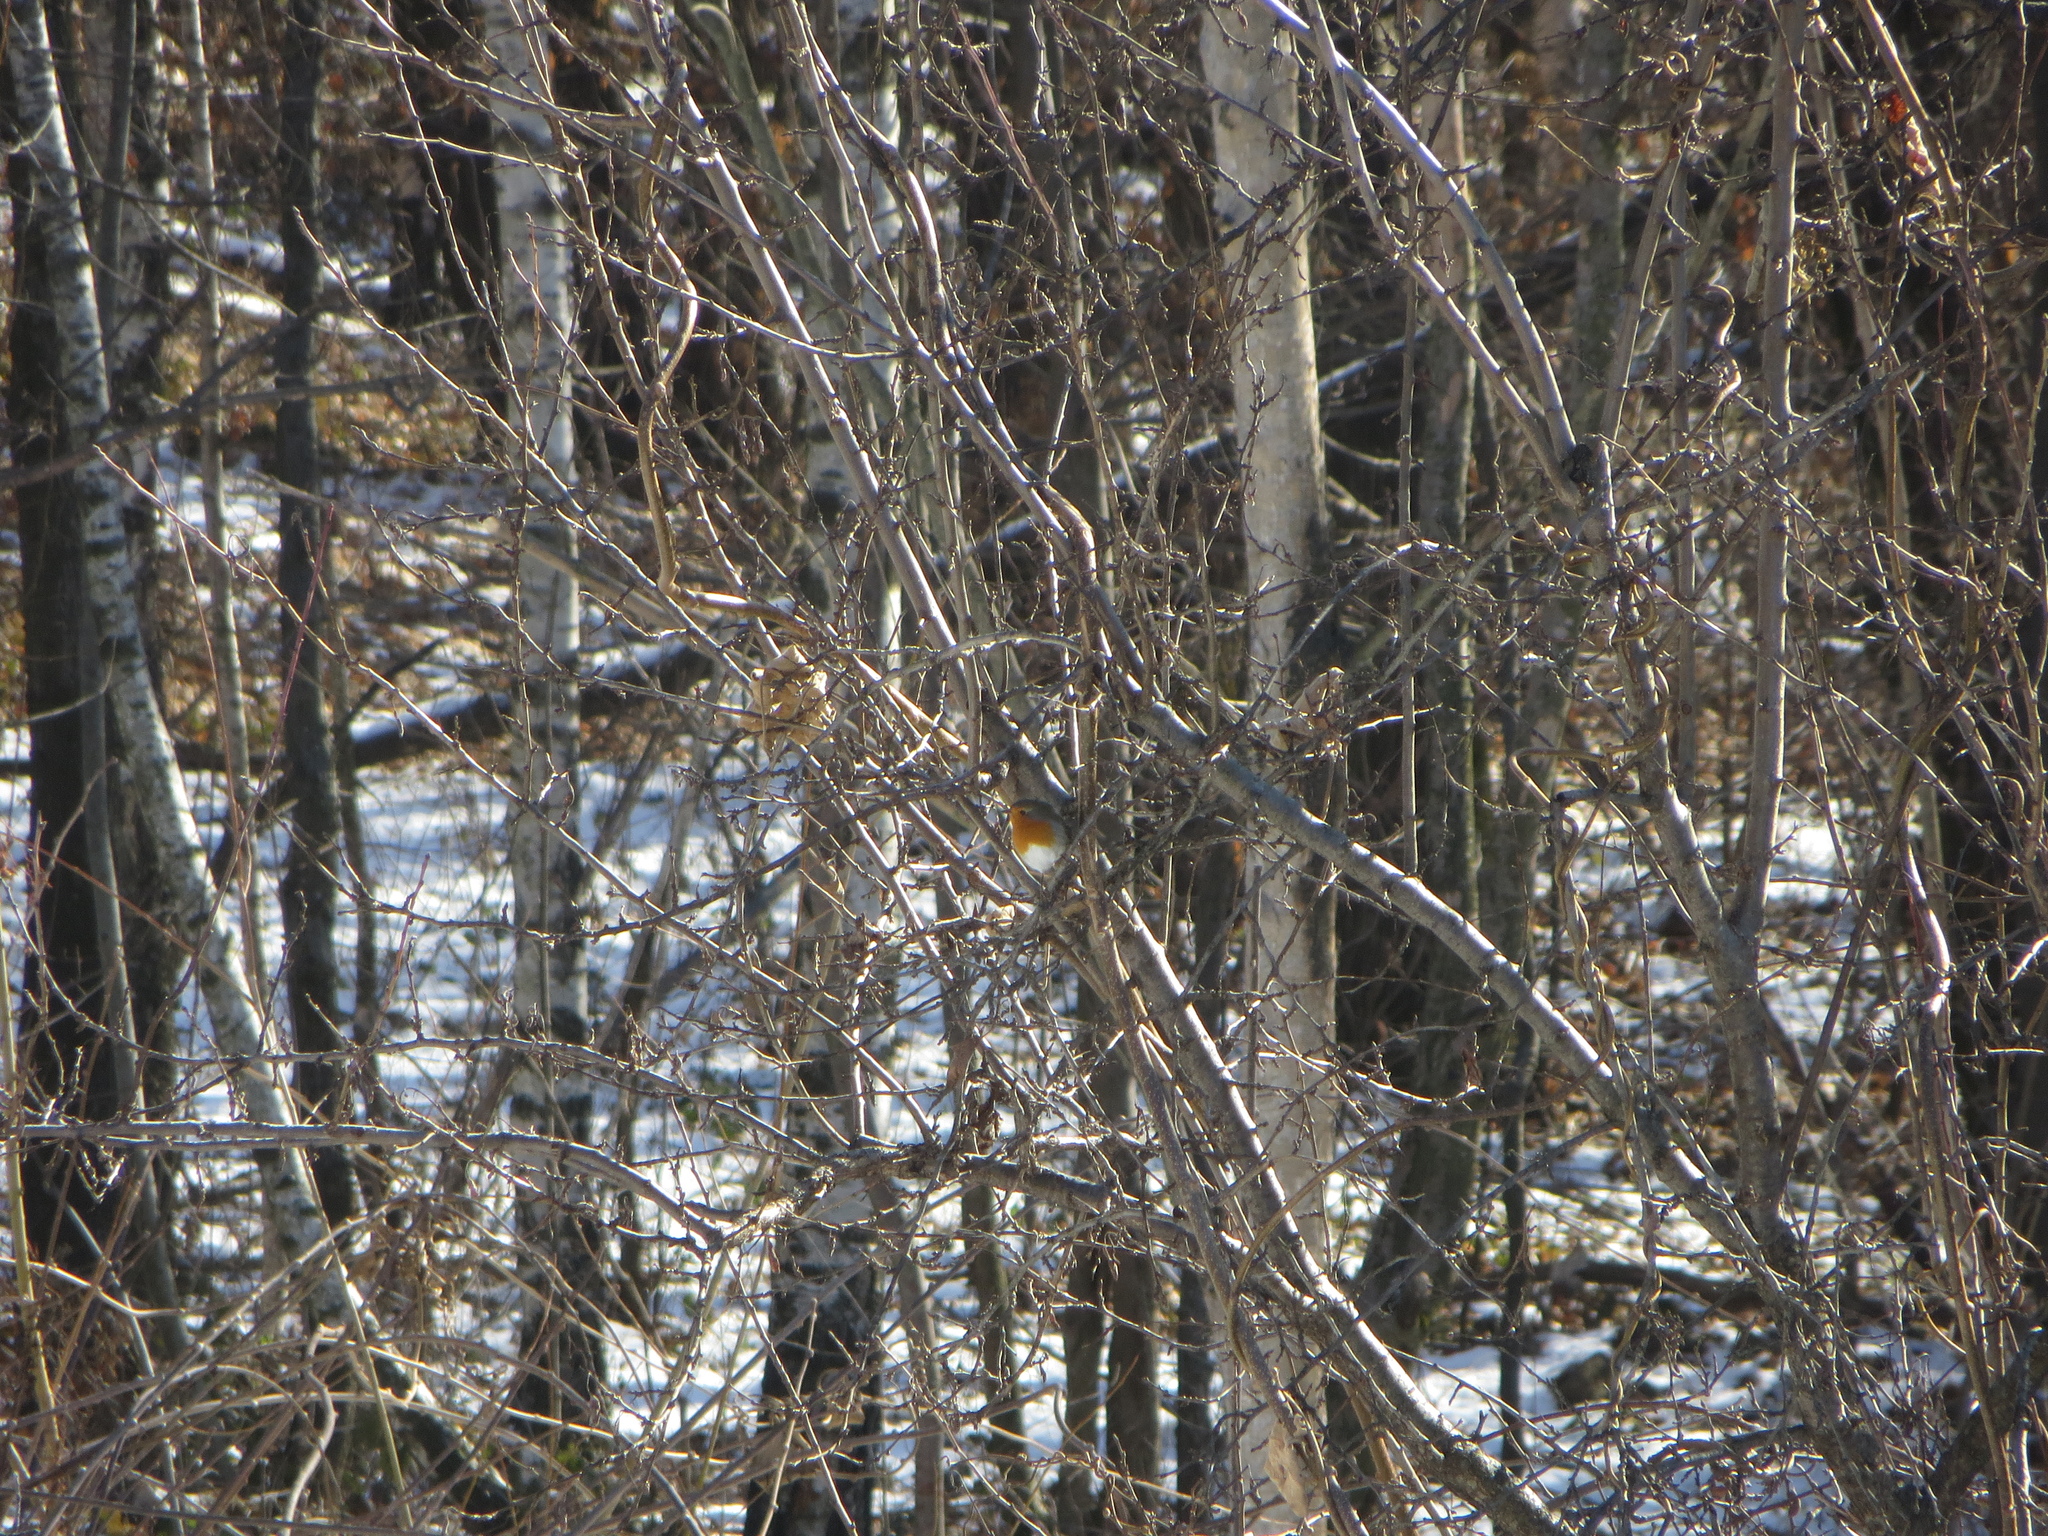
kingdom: Animalia
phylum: Chordata
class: Aves
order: Passeriformes
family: Muscicapidae
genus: Erithacus
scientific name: Erithacus rubecula
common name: European robin
